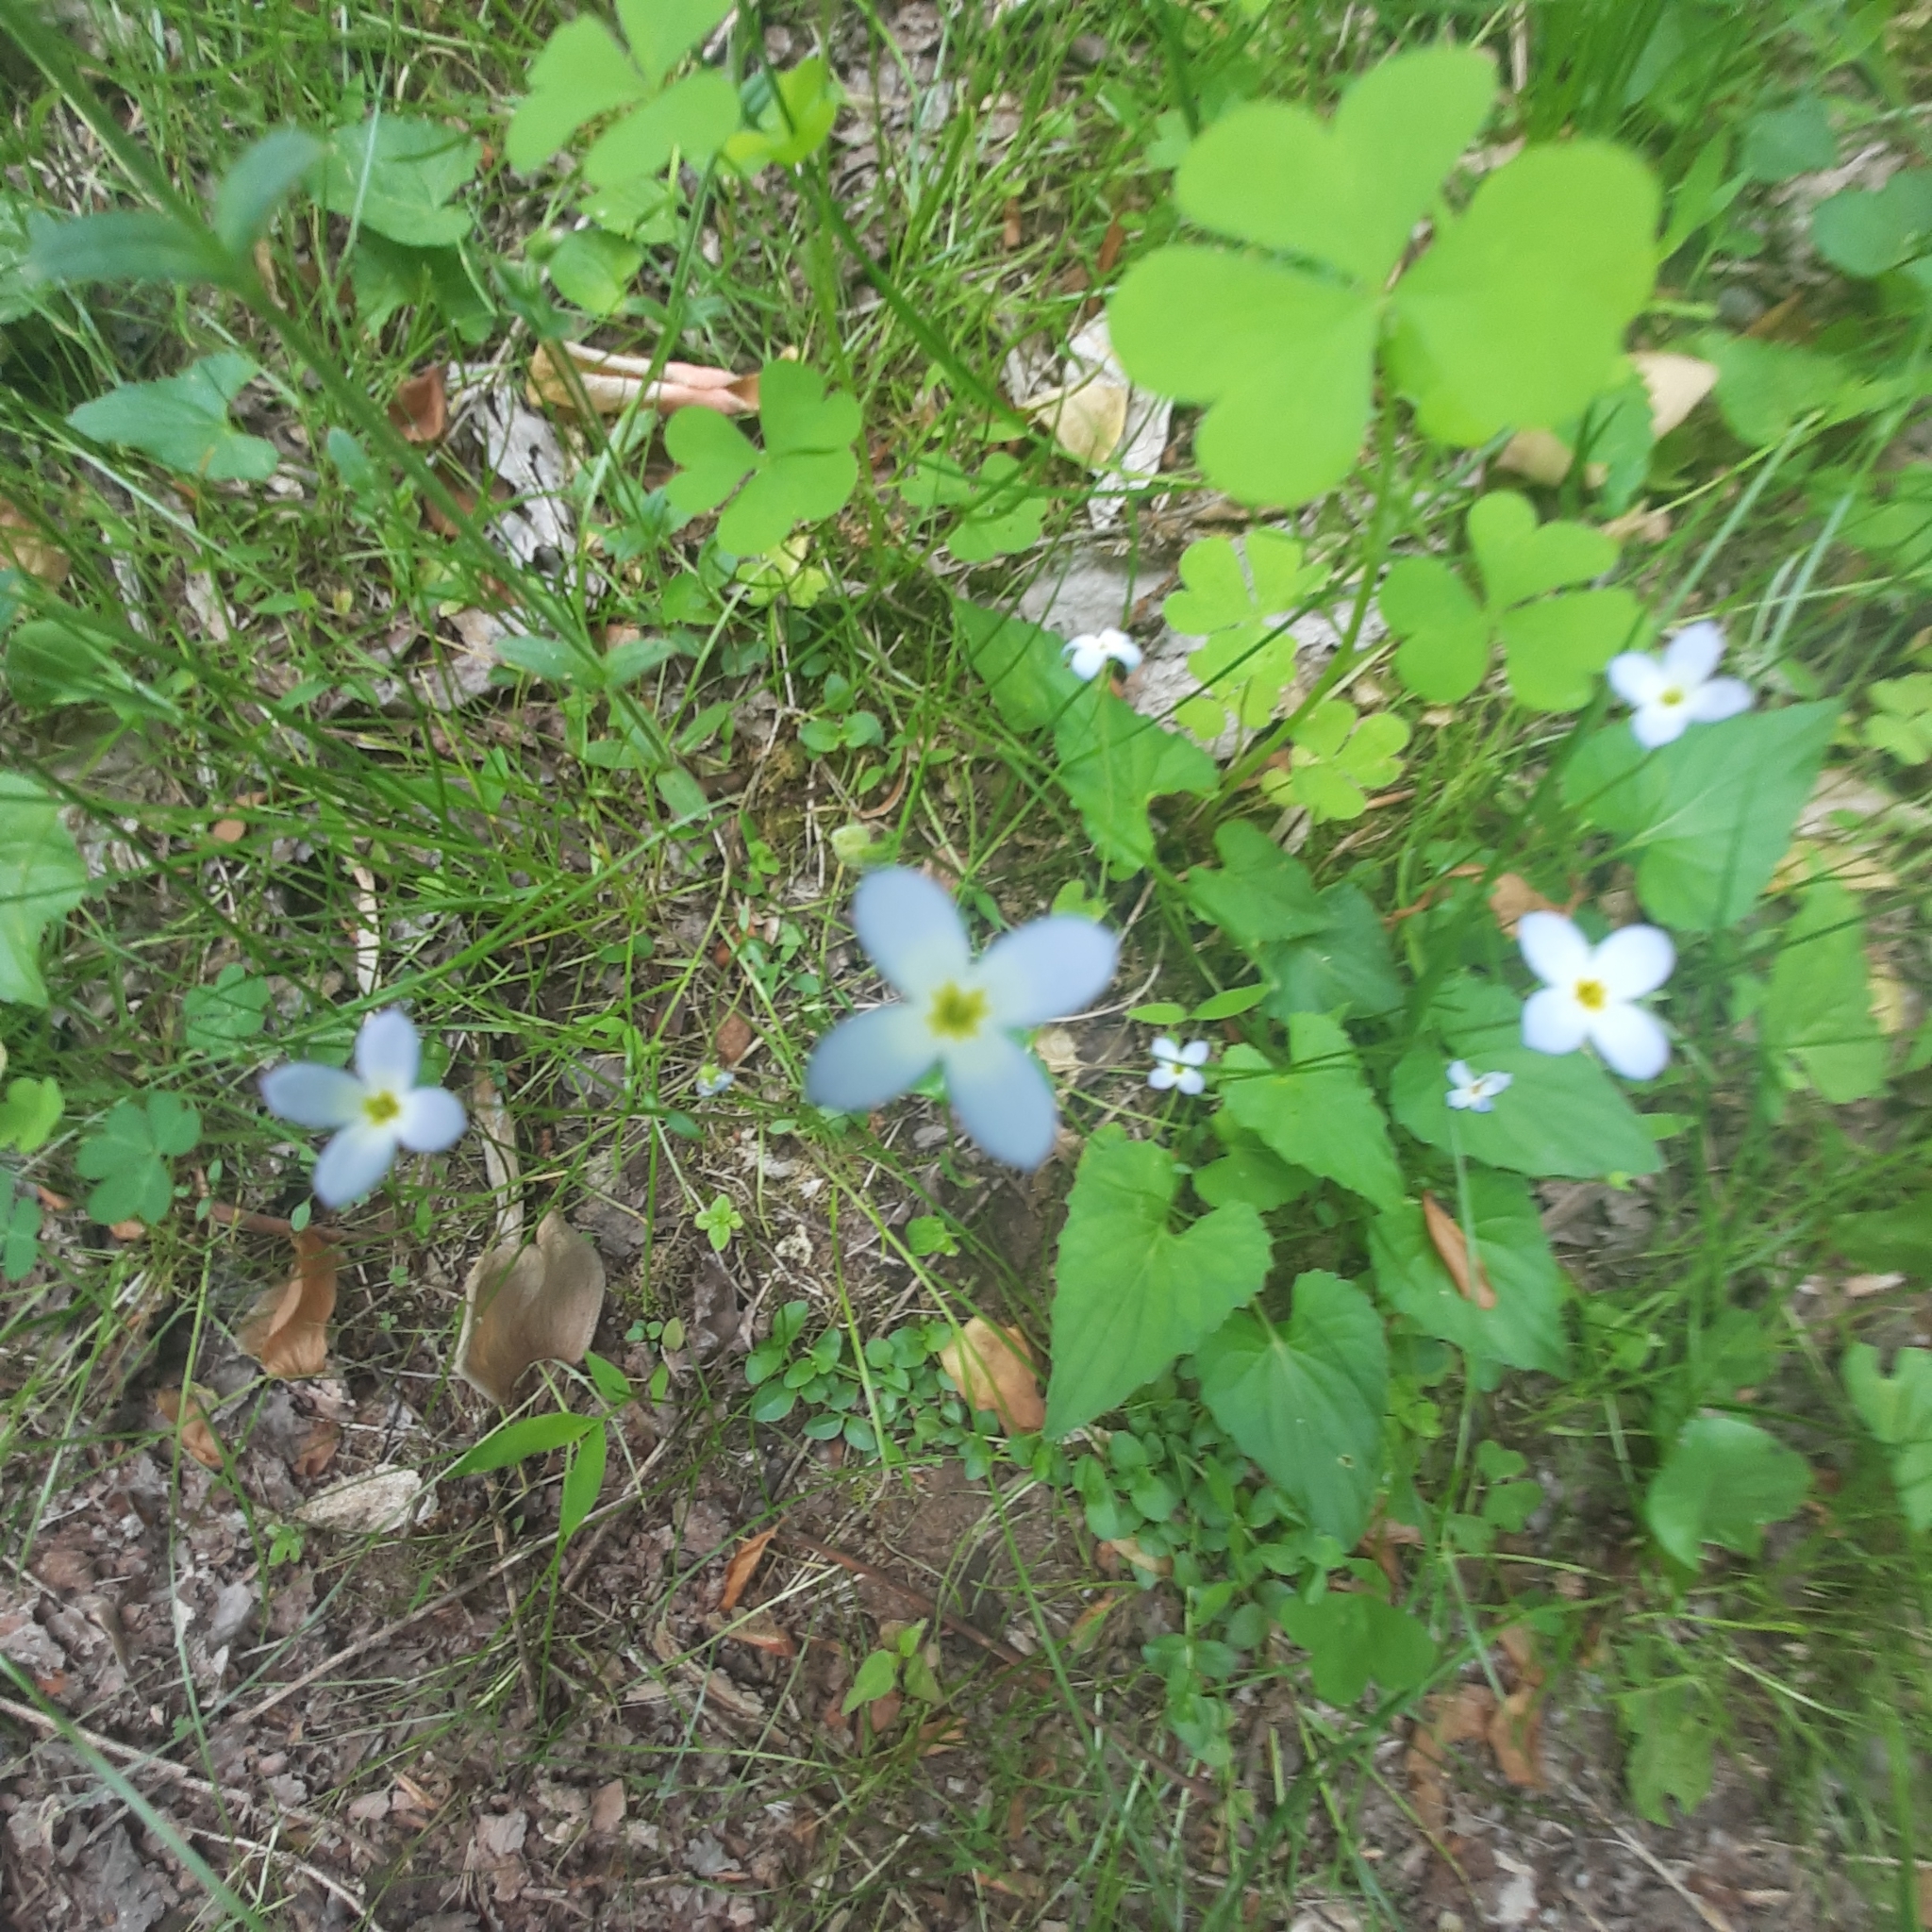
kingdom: Plantae
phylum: Tracheophyta
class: Magnoliopsida
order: Gentianales
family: Rubiaceae
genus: Houstonia
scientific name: Houstonia caerulea
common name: Bluets
